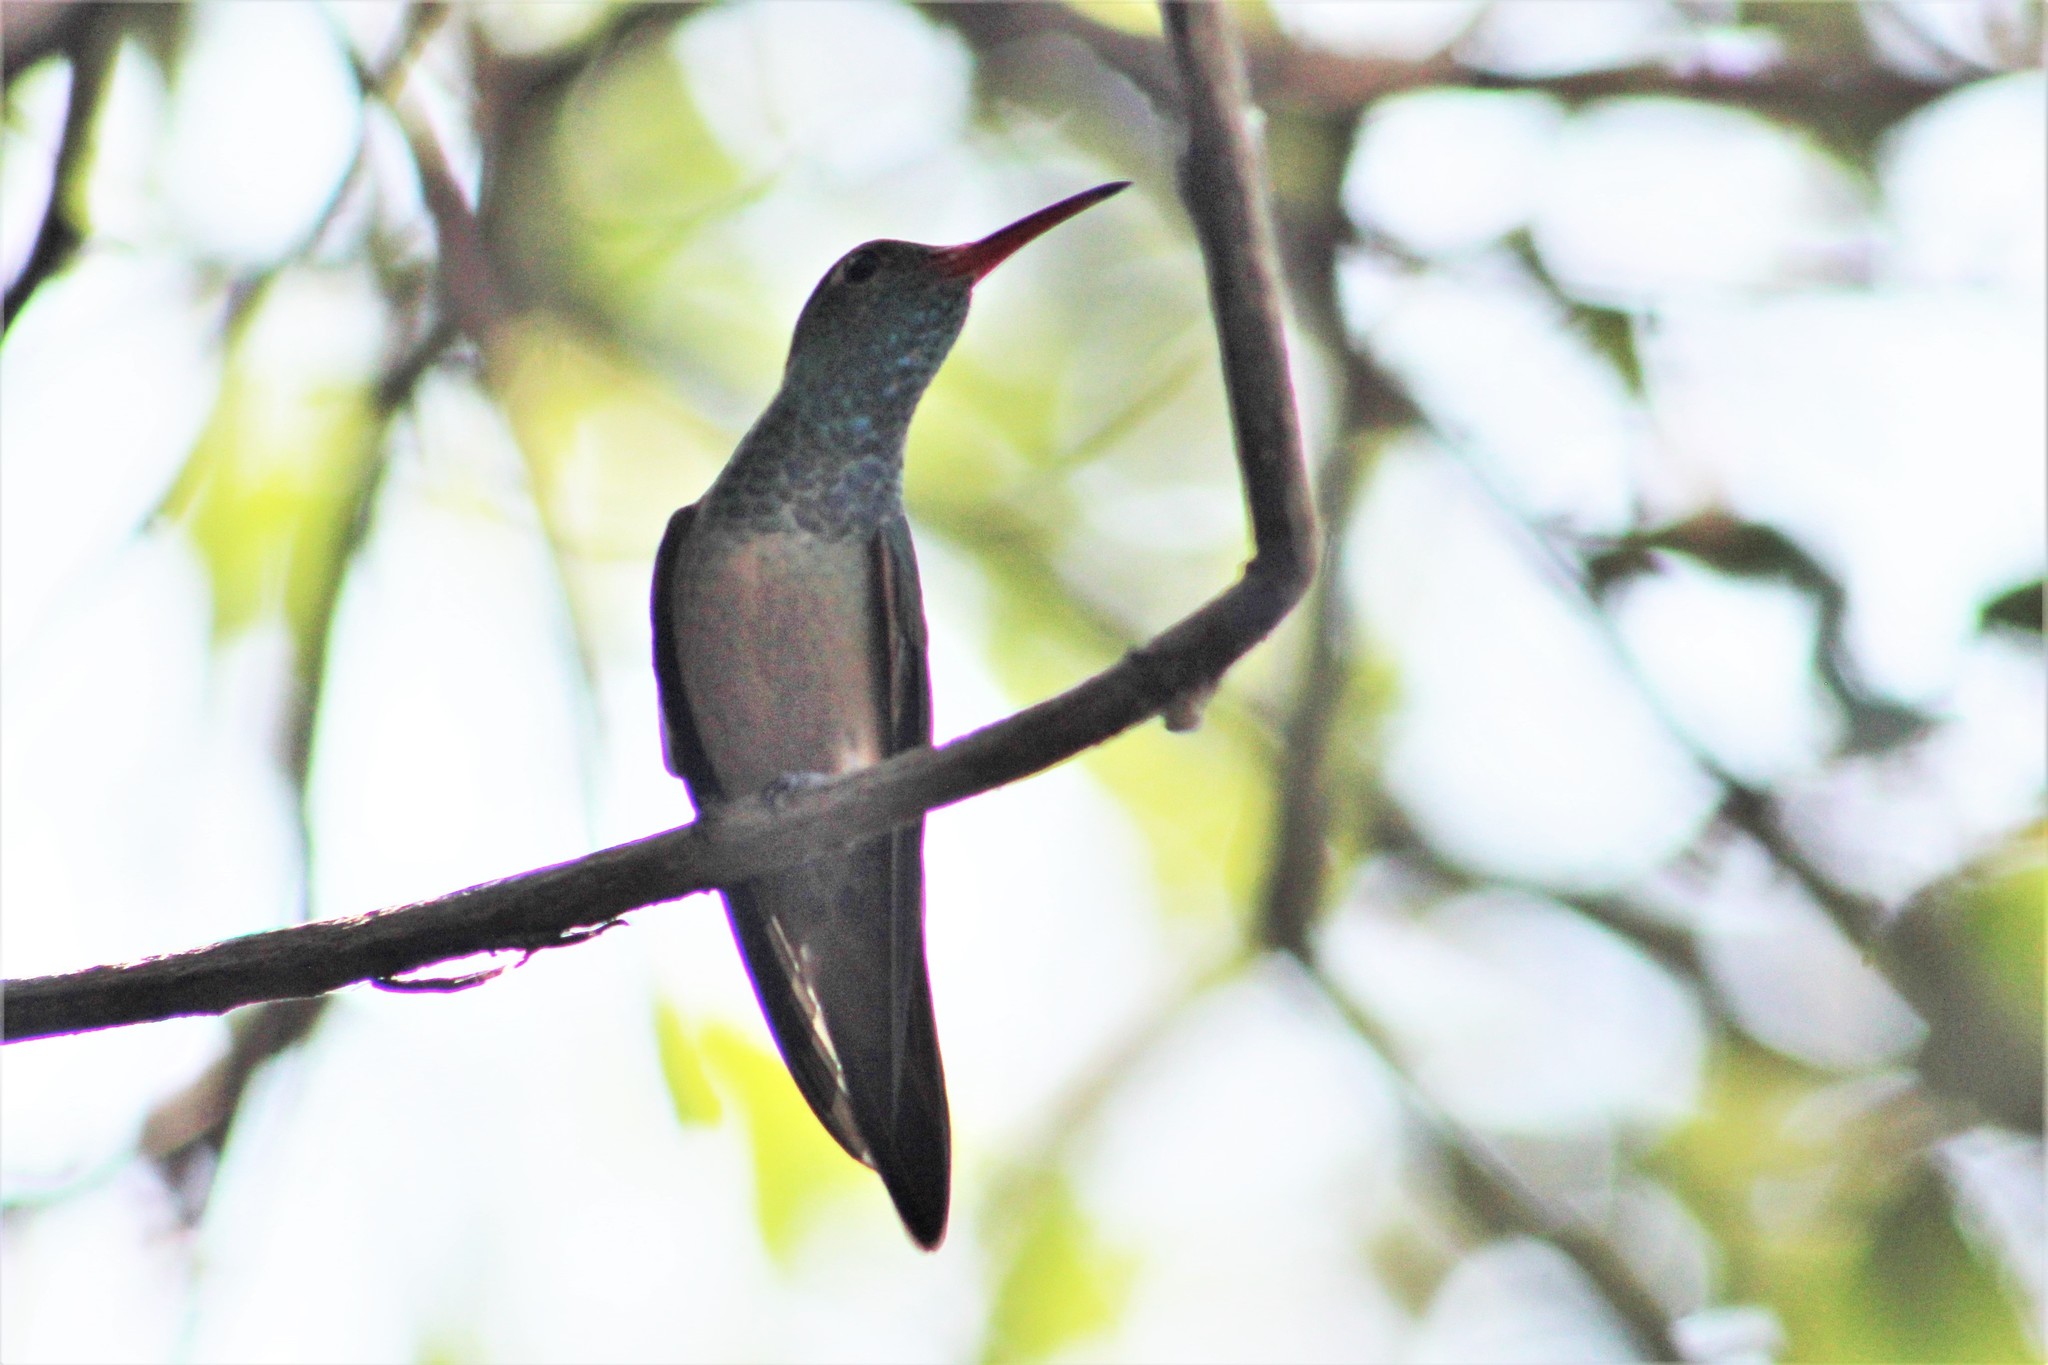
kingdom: Animalia
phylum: Chordata
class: Aves
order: Apodiformes
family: Trochilidae
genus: Amazilia
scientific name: Amazilia yucatanensis
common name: Buff-bellied hummingbird
